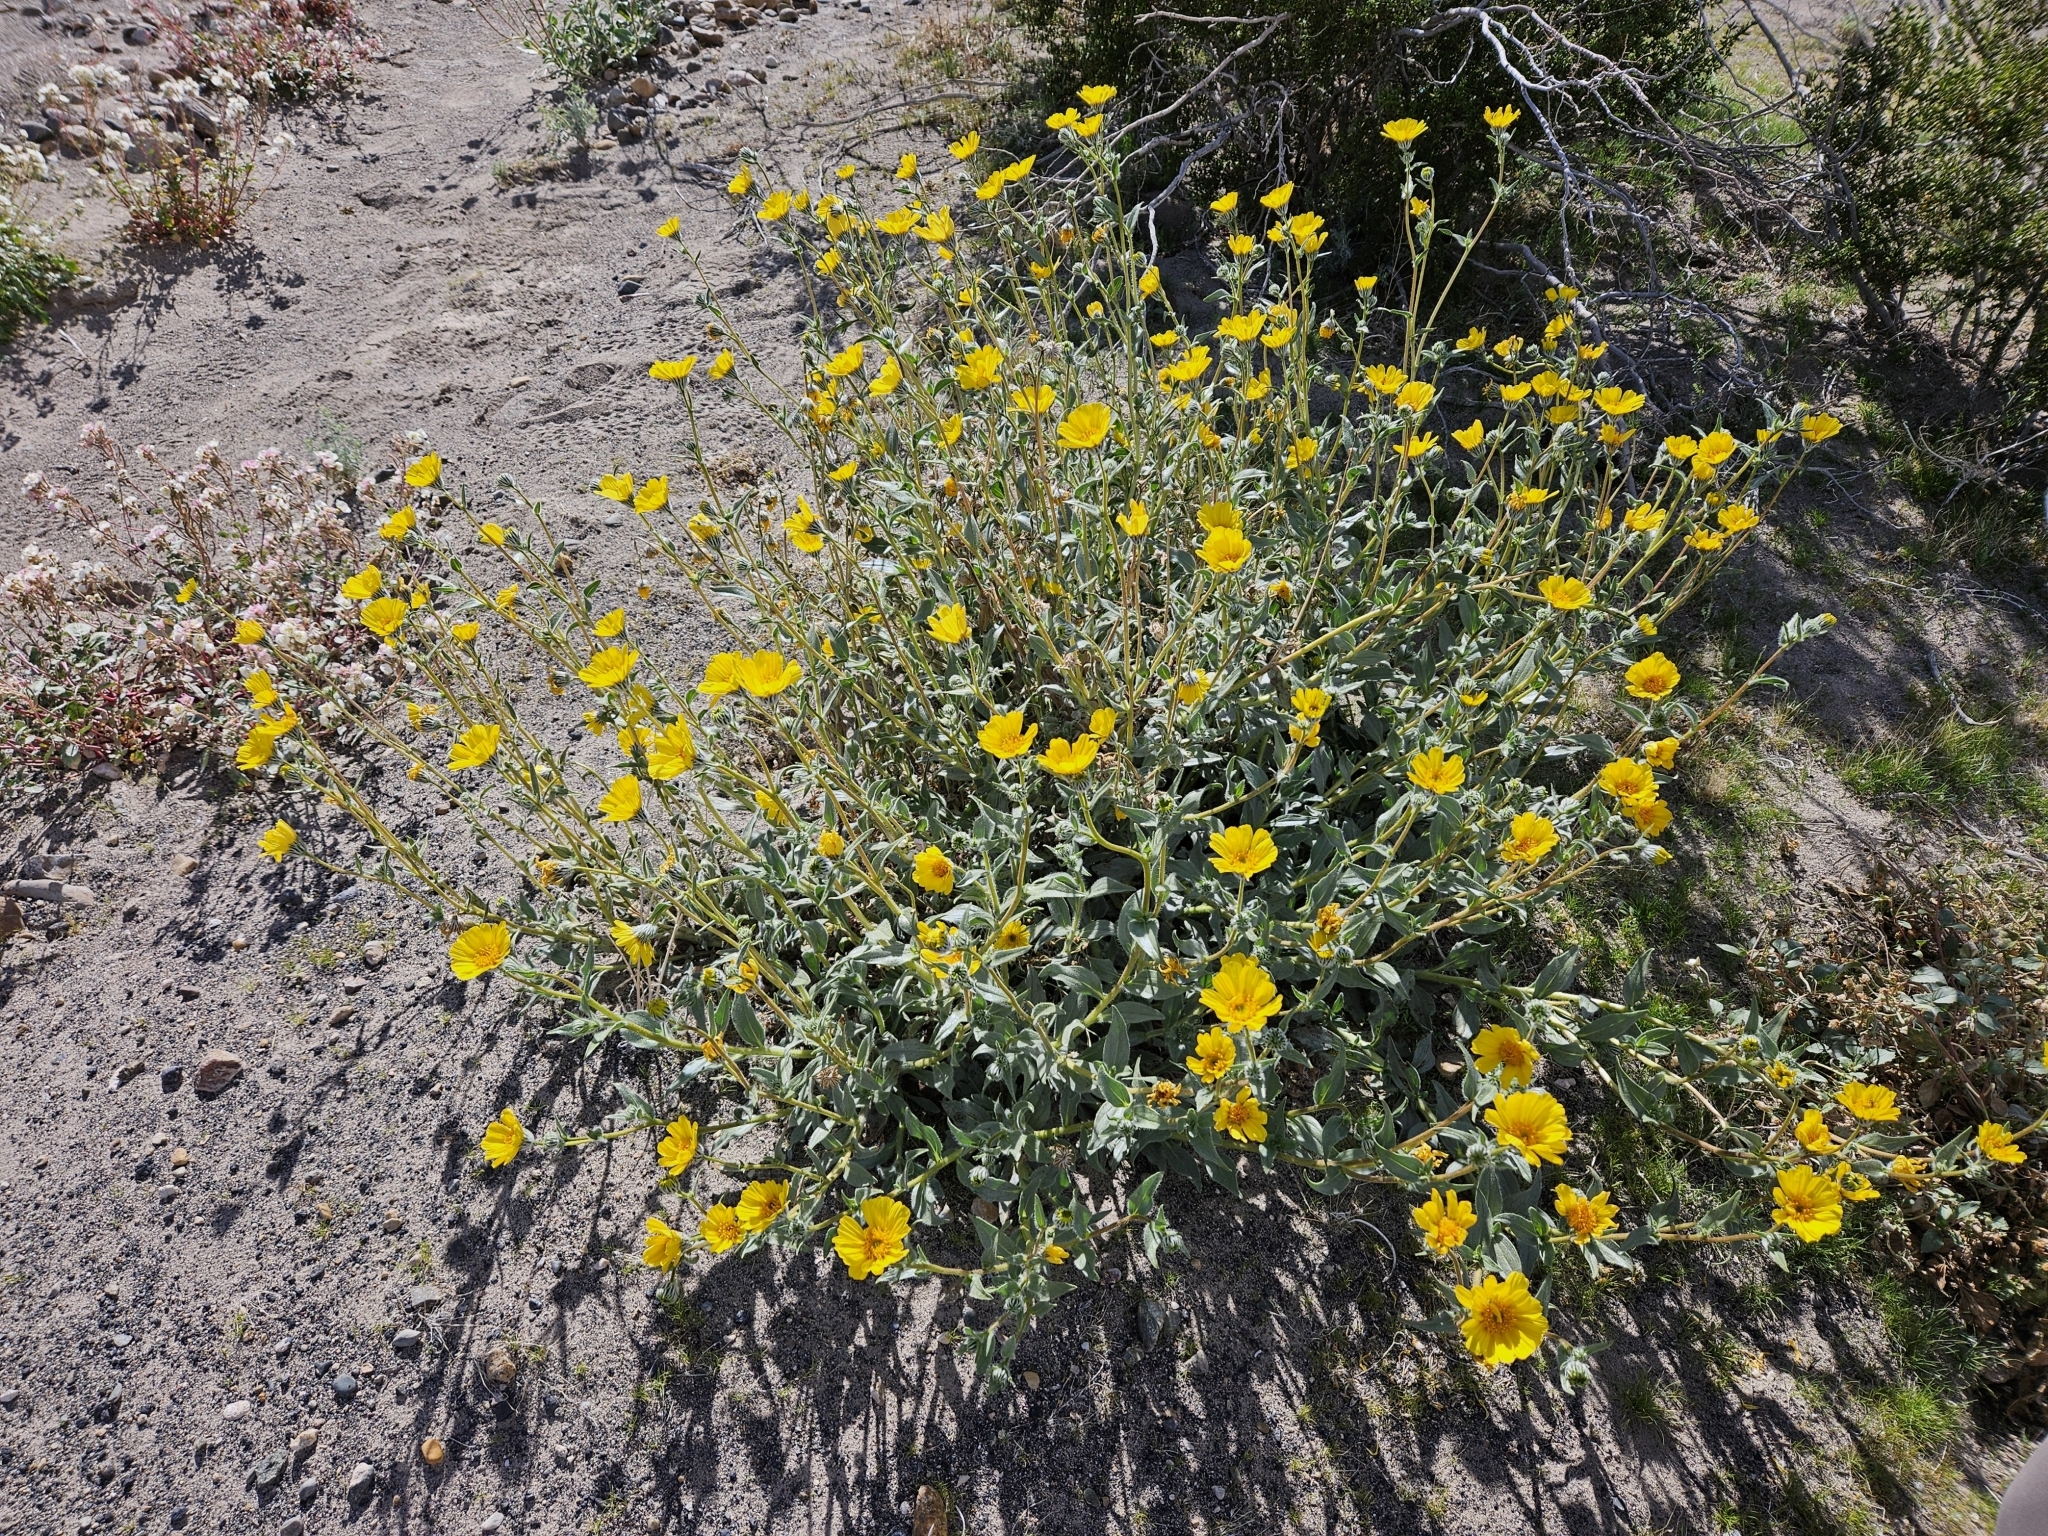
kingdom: Plantae
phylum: Tracheophyta
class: Magnoliopsida
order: Asterales
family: Asteraceae
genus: Geraea
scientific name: Geraea canescens
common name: Desert-gold
